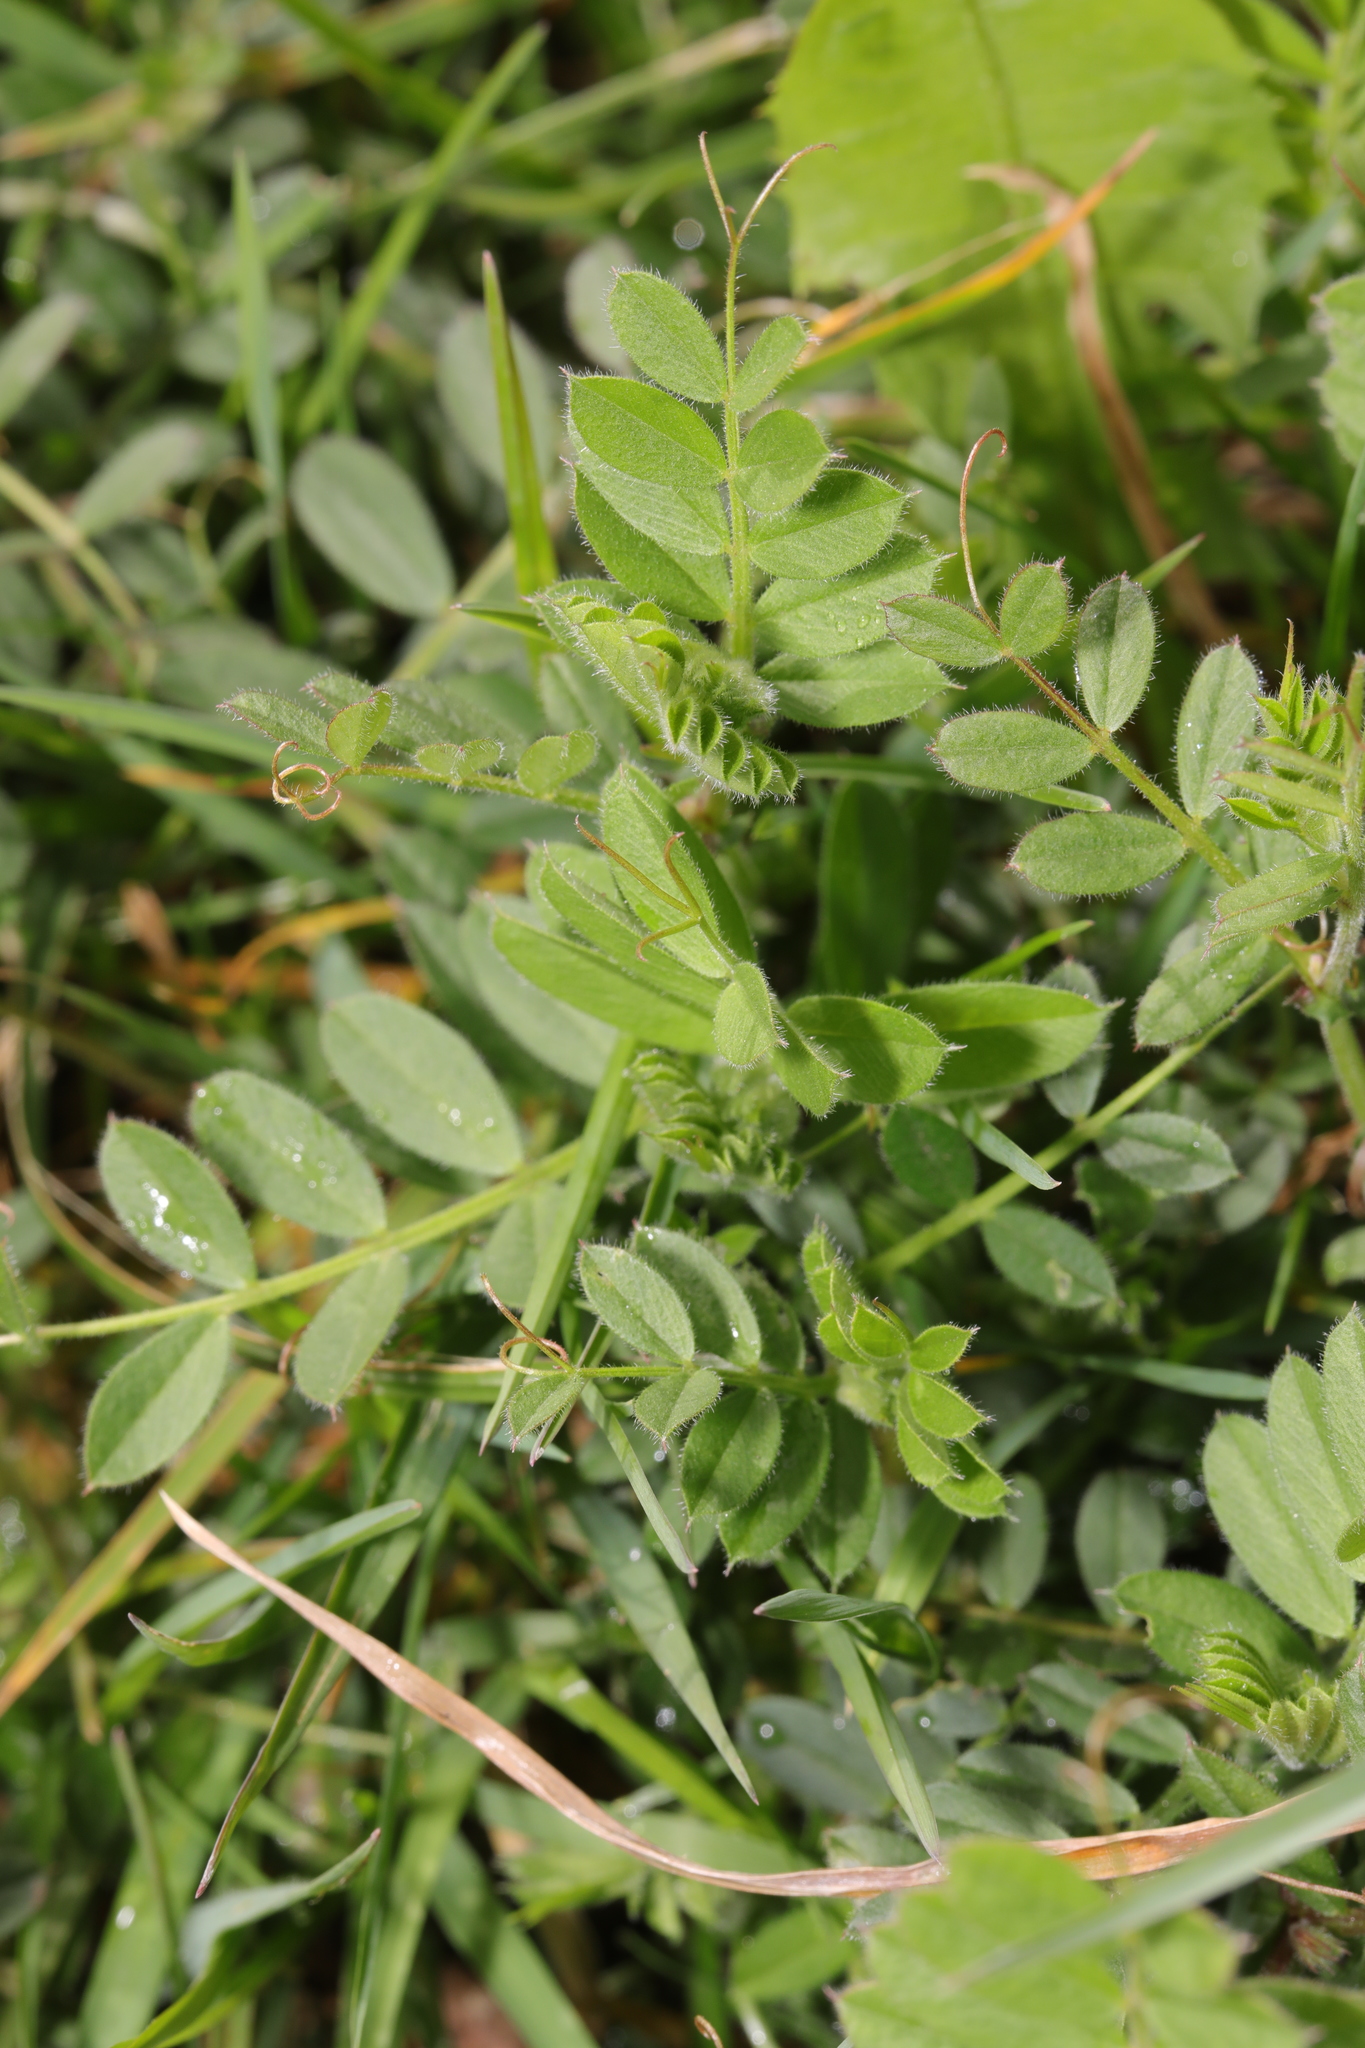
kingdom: Plantae
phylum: Tracheophyta
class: Magnoliopsida
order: Fabales
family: Fabaceae
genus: Vicia
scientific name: Vicia sativa
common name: Garden vetch
